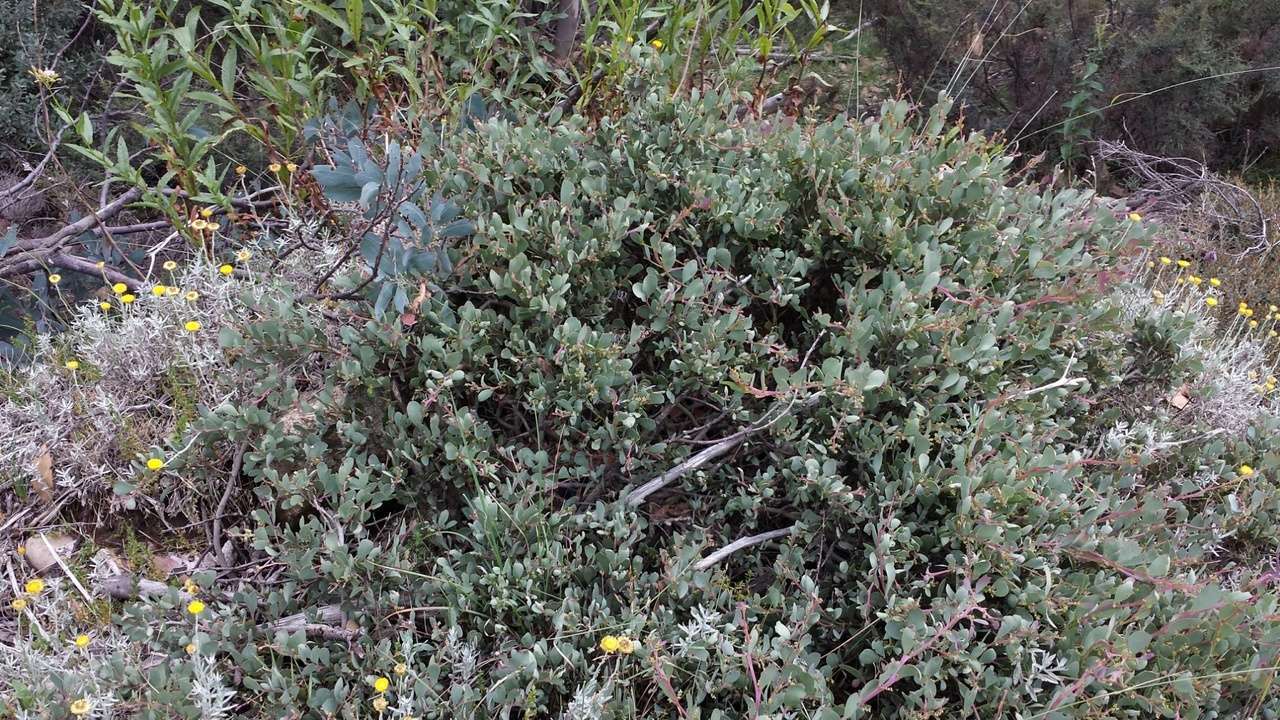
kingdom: Plantae
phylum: Tracheophyta
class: Magnoliopsida
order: Fabales
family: Fabaceae
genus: Acacia
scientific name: Acacia alpina
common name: Alpine wattle
